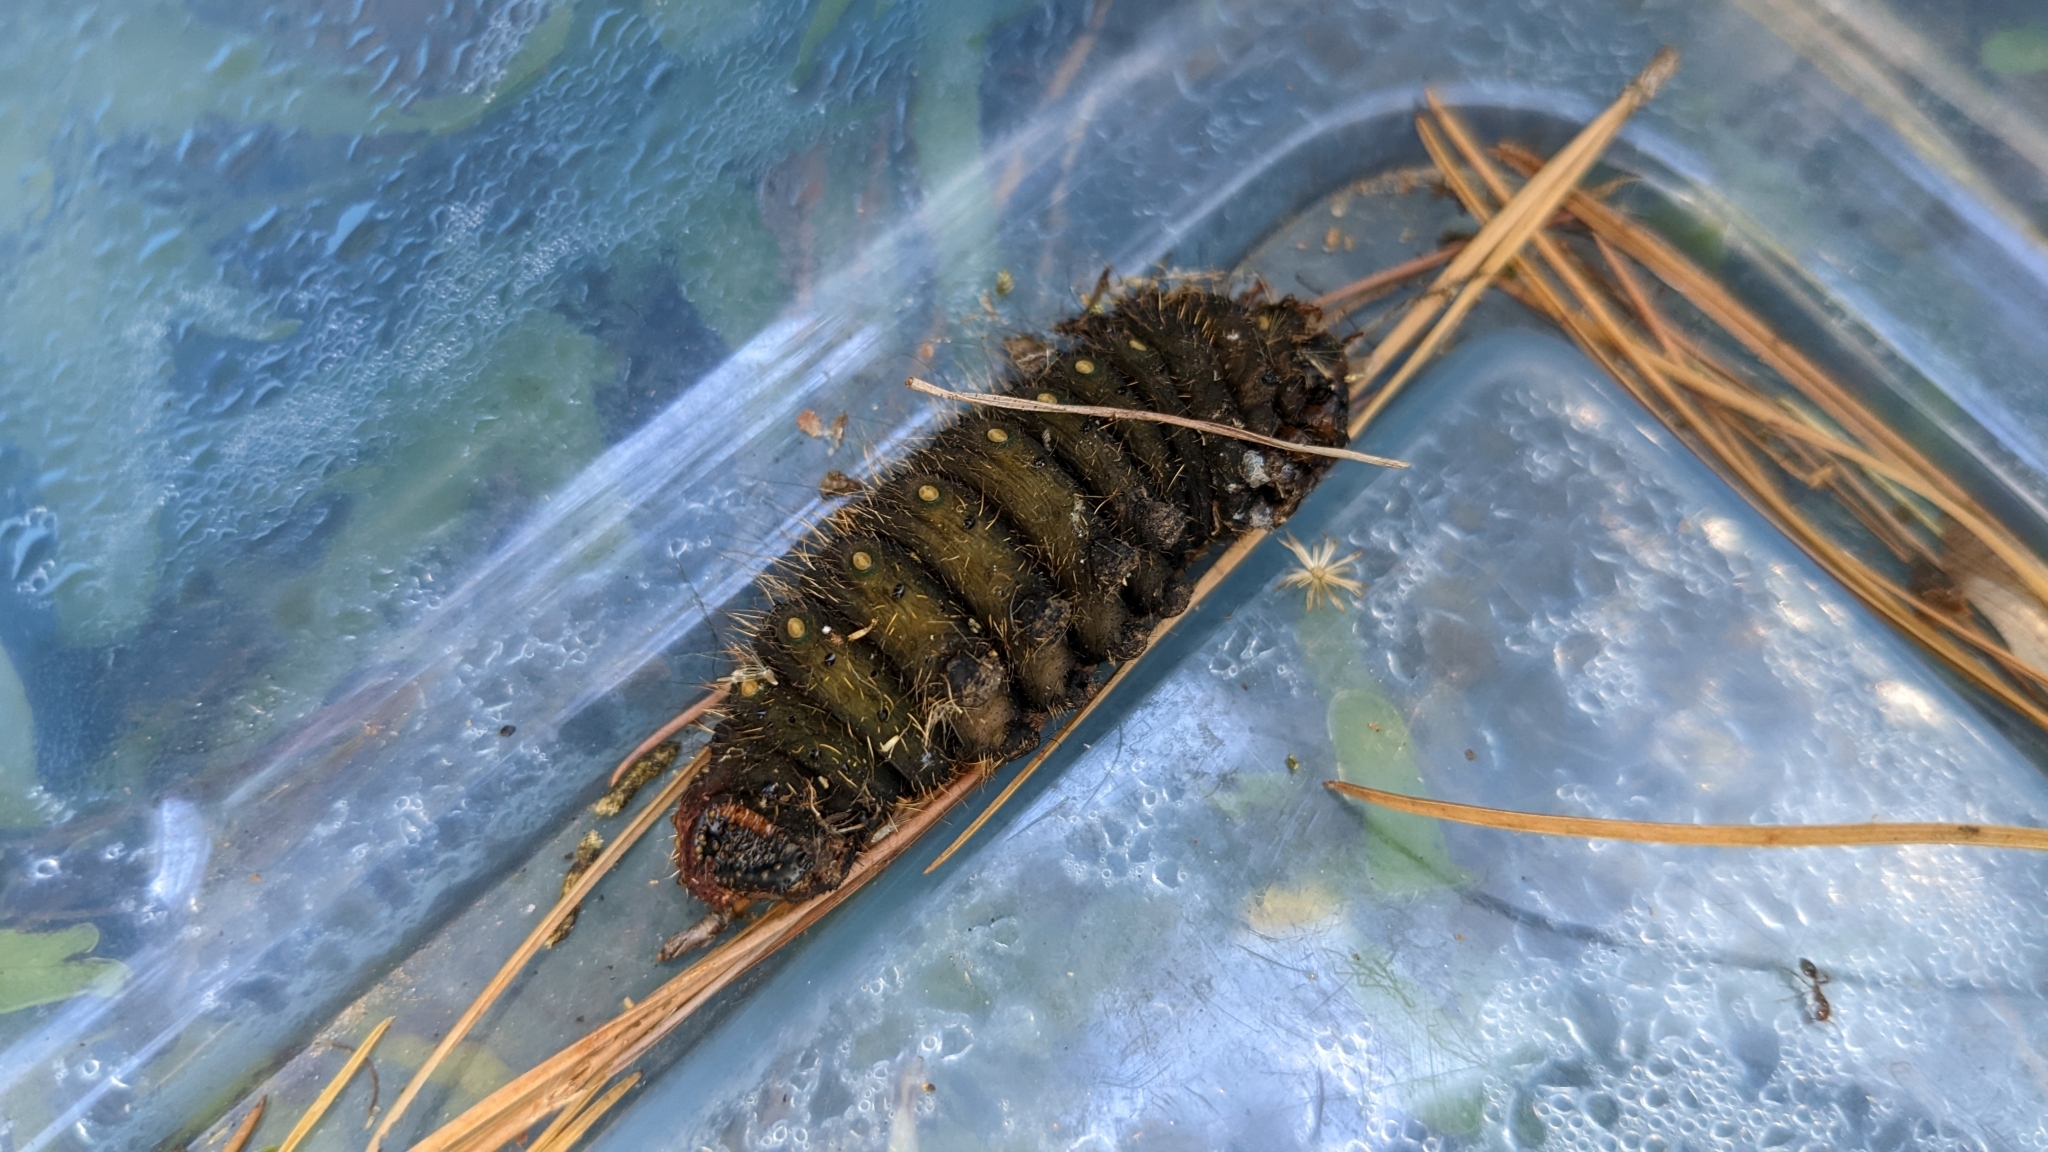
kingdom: Animalia
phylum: Arthropoda
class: Insecta
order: Lepidoptera
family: Saturniidae
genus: Eacles
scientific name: Eacles imperialis
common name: Imperial moth
